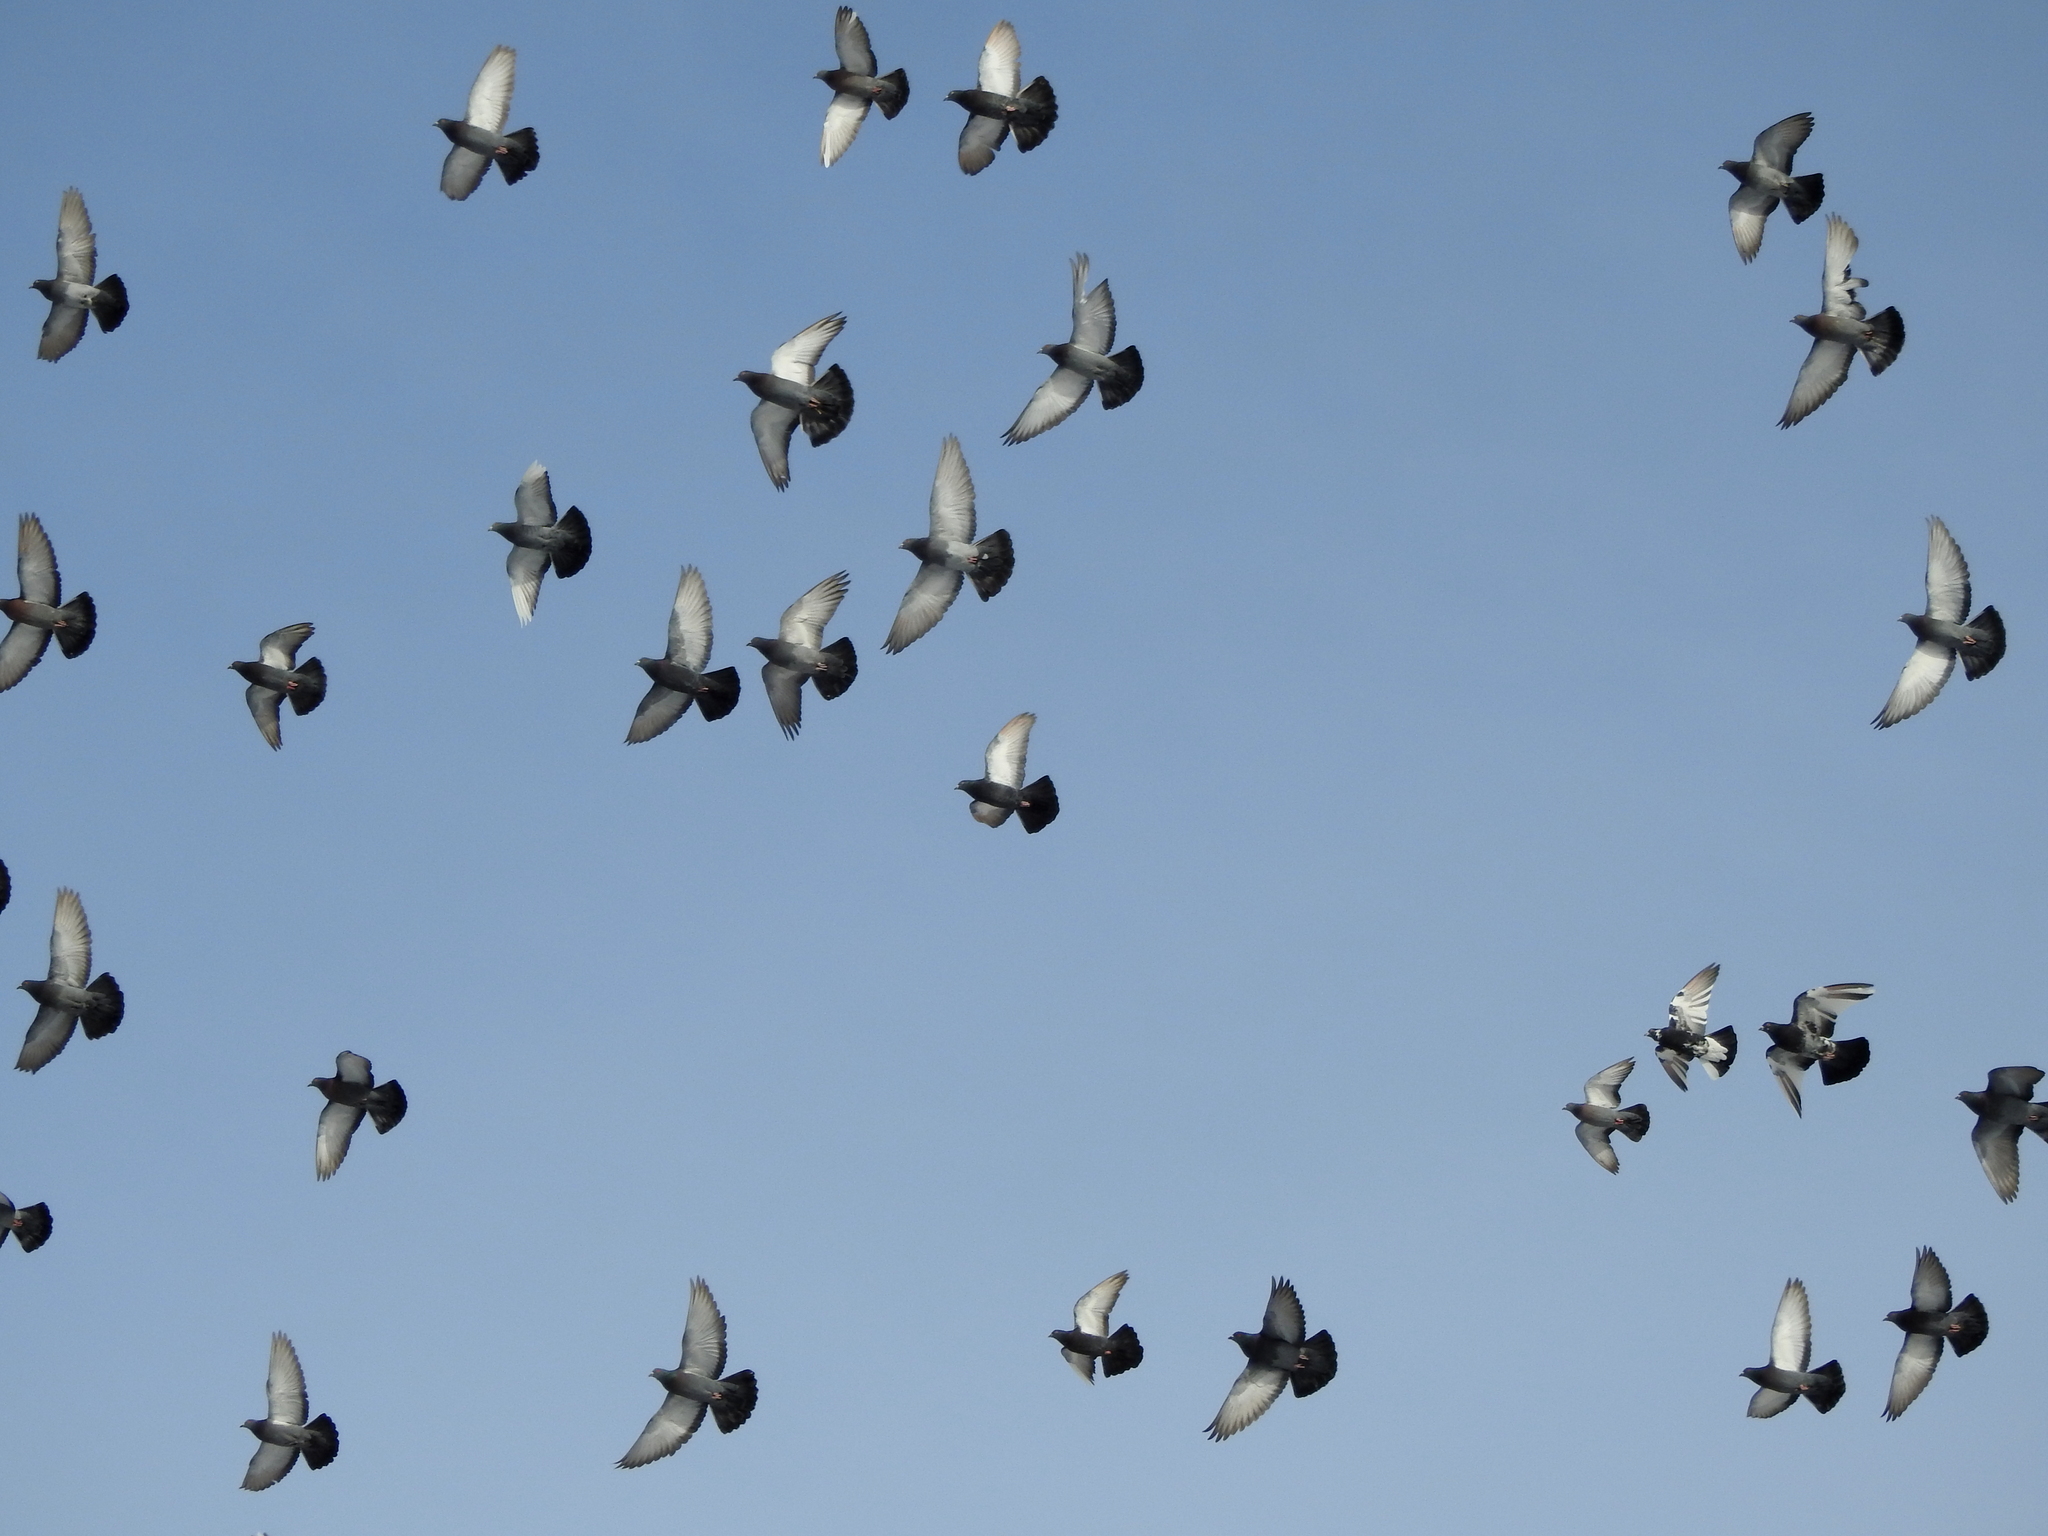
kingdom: Animalia
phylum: Chordata
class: Aves
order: Columbiformes
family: Columbidae
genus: Columba
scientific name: Columba livia
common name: Rock pigeon
